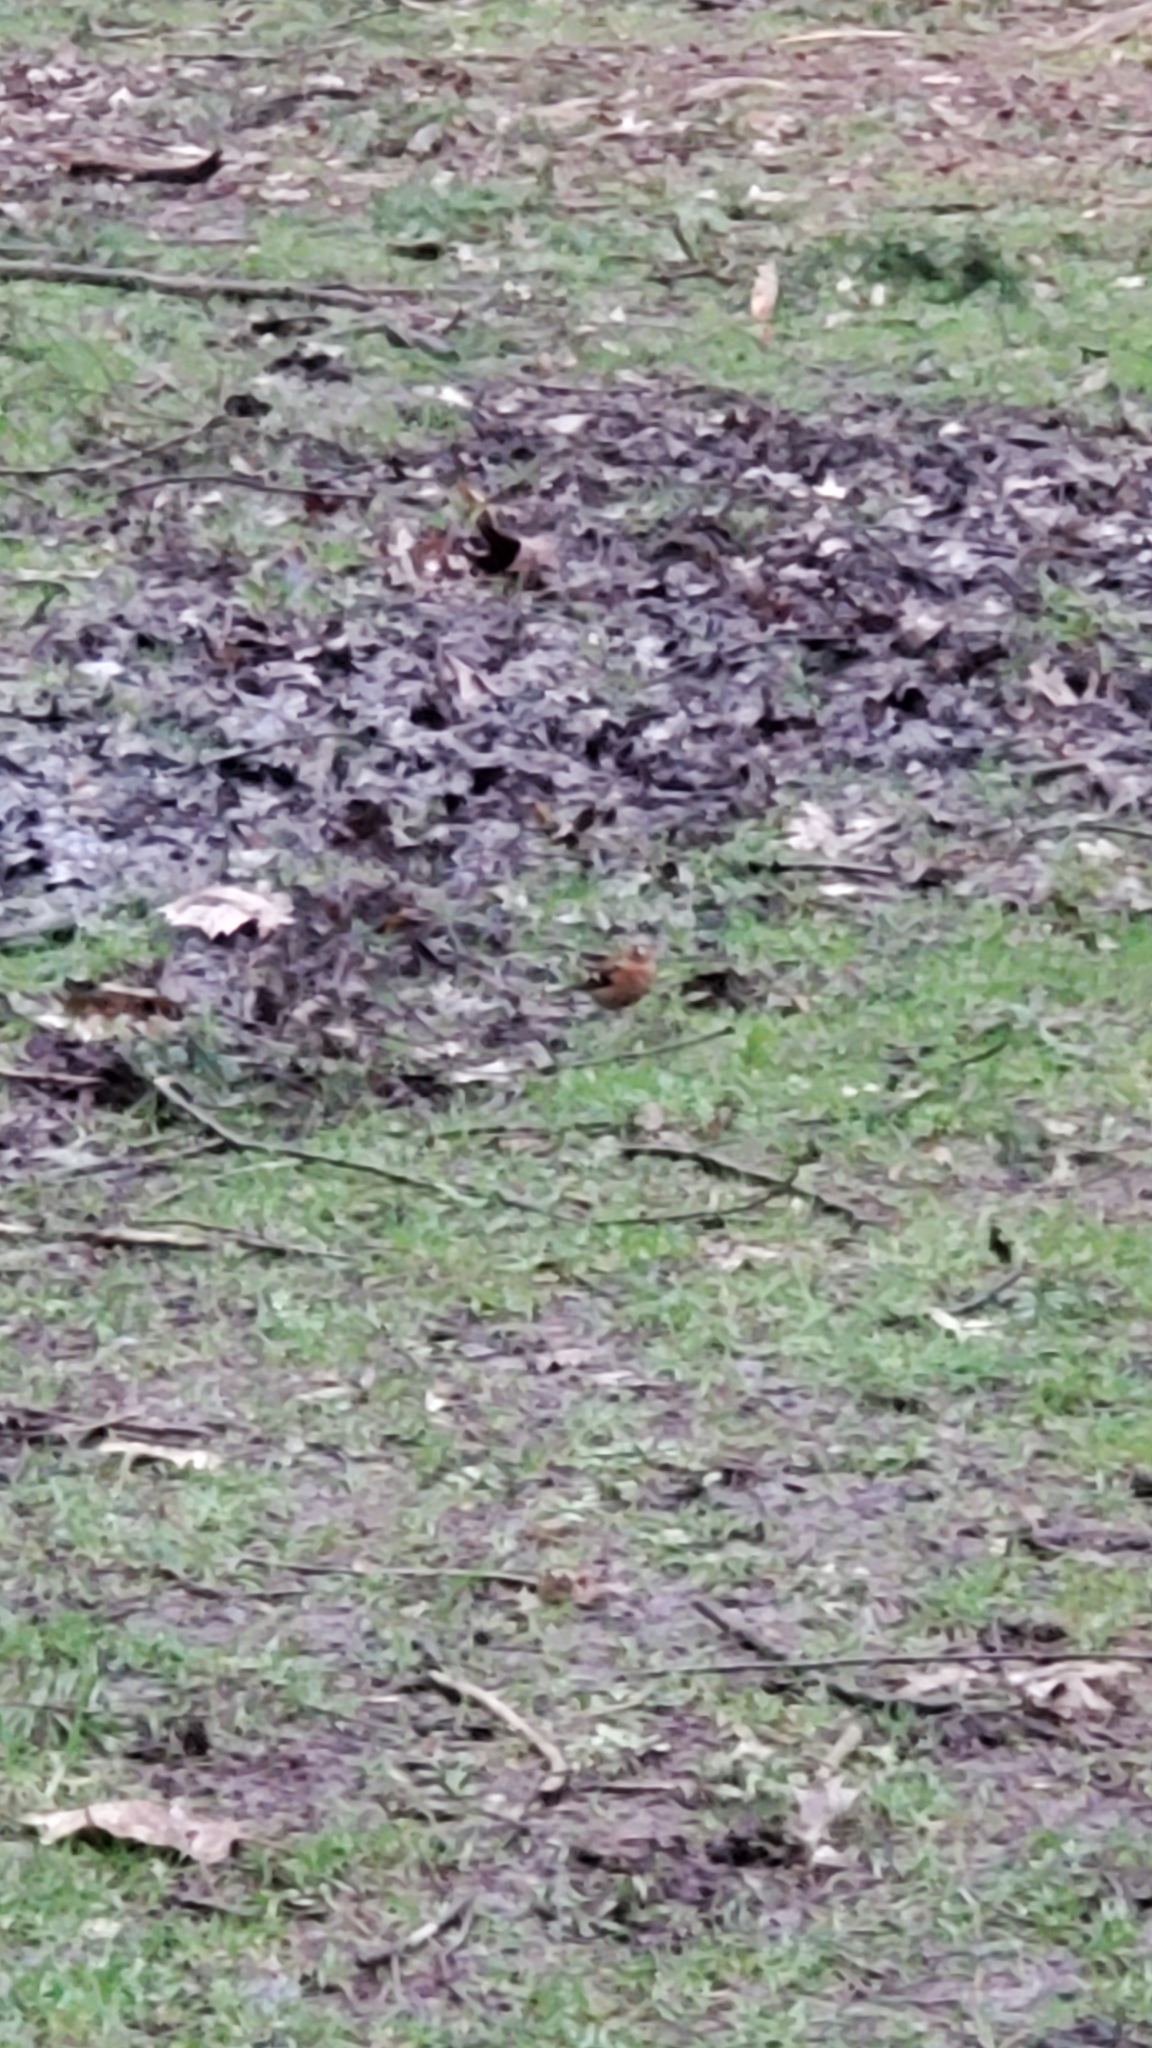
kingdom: Animalia
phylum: Chordata
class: Aves
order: Passeriformes
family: Fringillidae
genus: Fringilla
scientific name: Fringilla coelebs
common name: Common chaffinch
